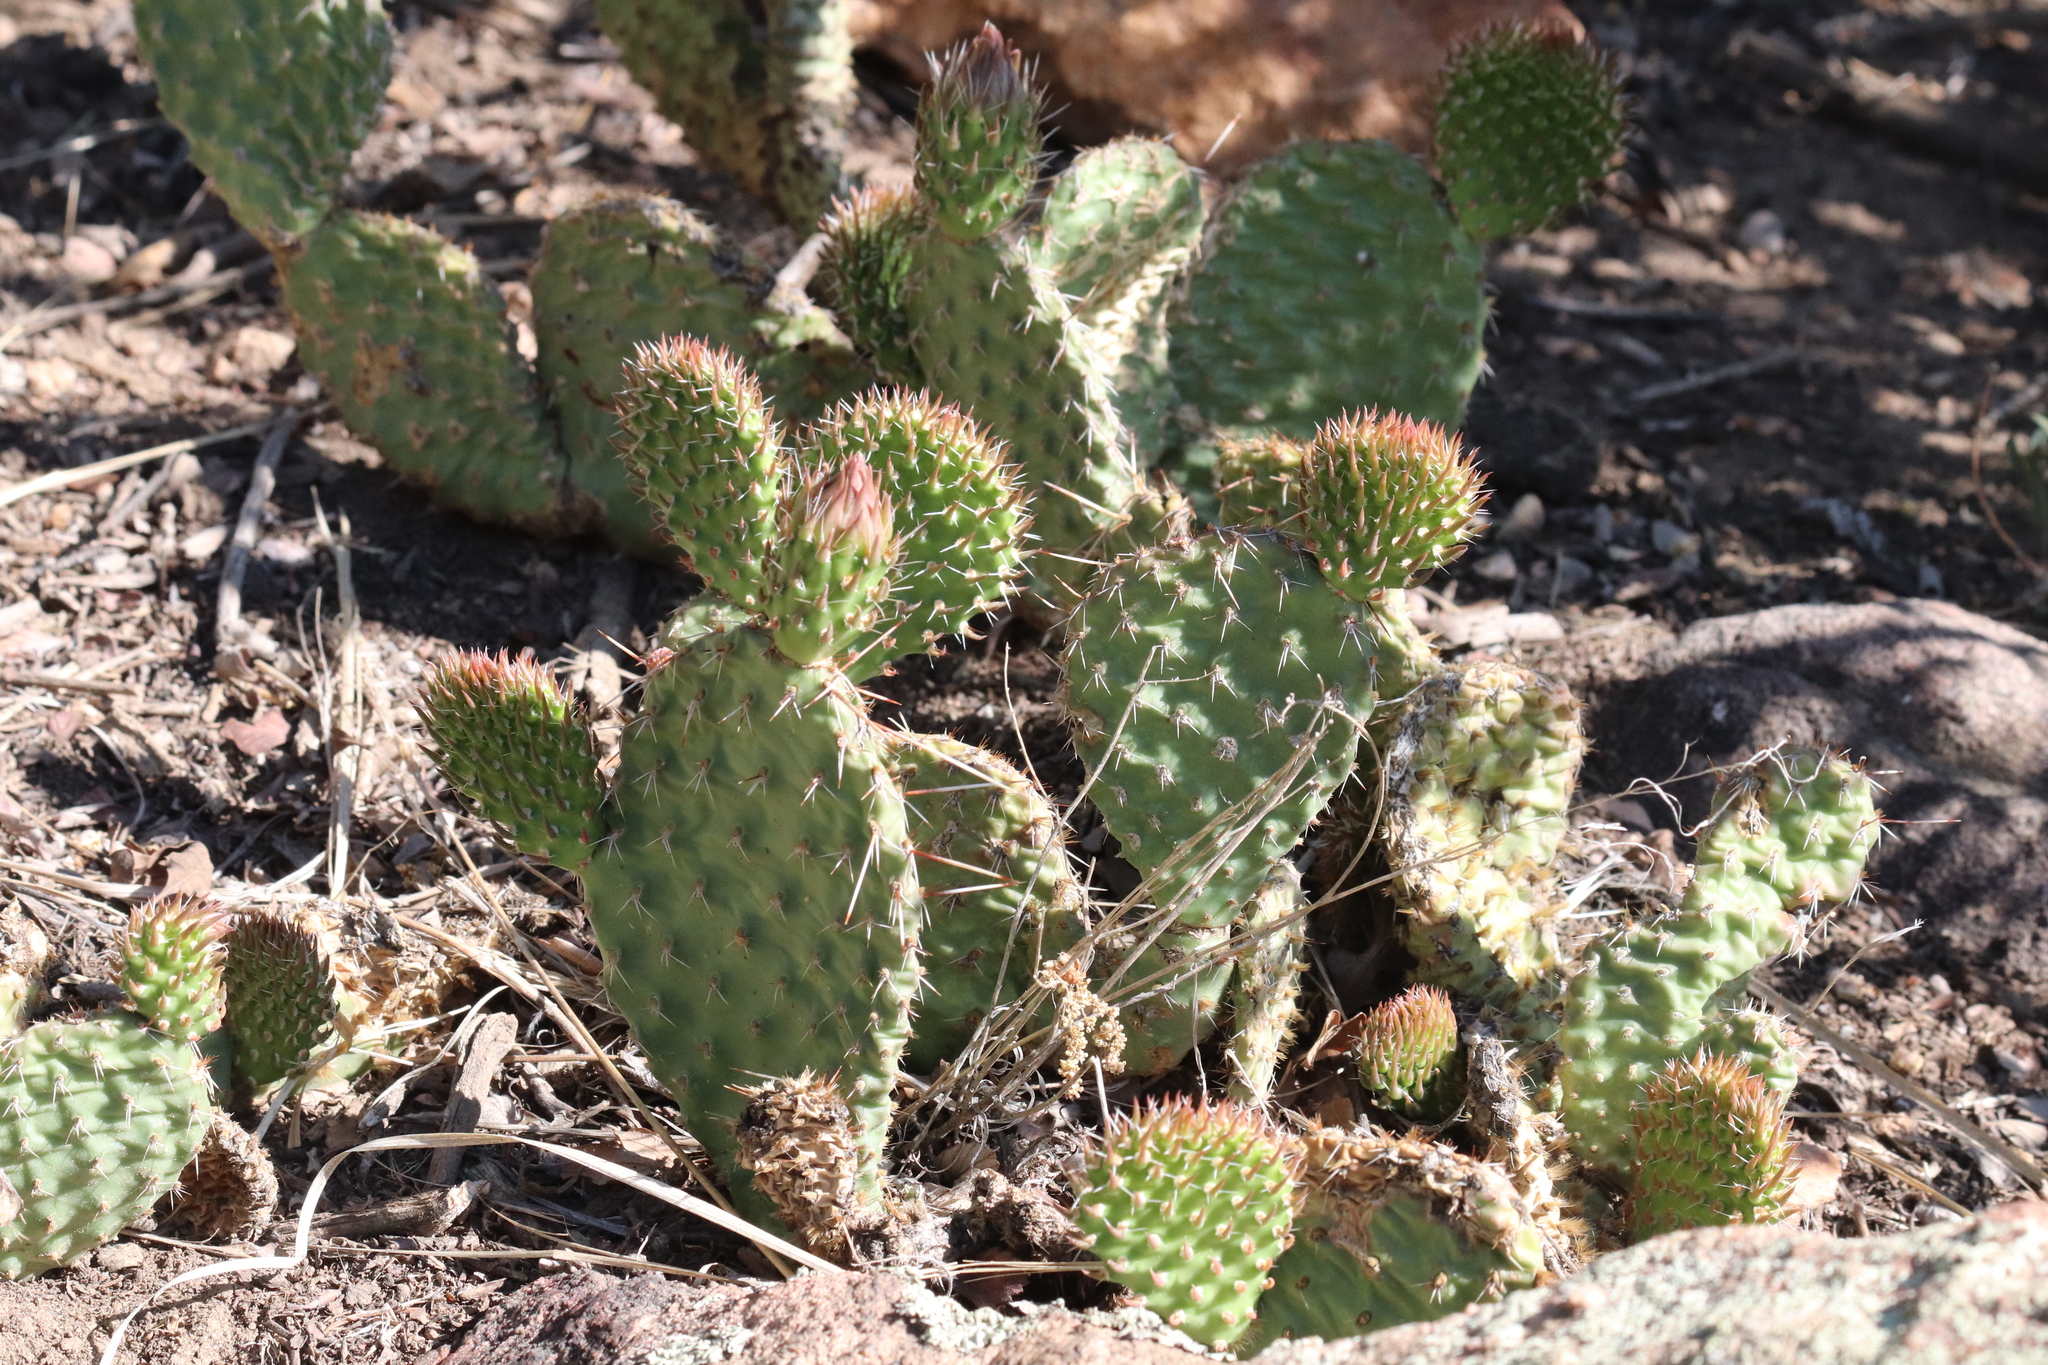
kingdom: Plantae
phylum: Tracheophyta
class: Magnoliopsida
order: Caryophyllales
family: Cactaceae
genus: Opuntia
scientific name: Opuntia polyacantha
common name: Plains prickly-pear
